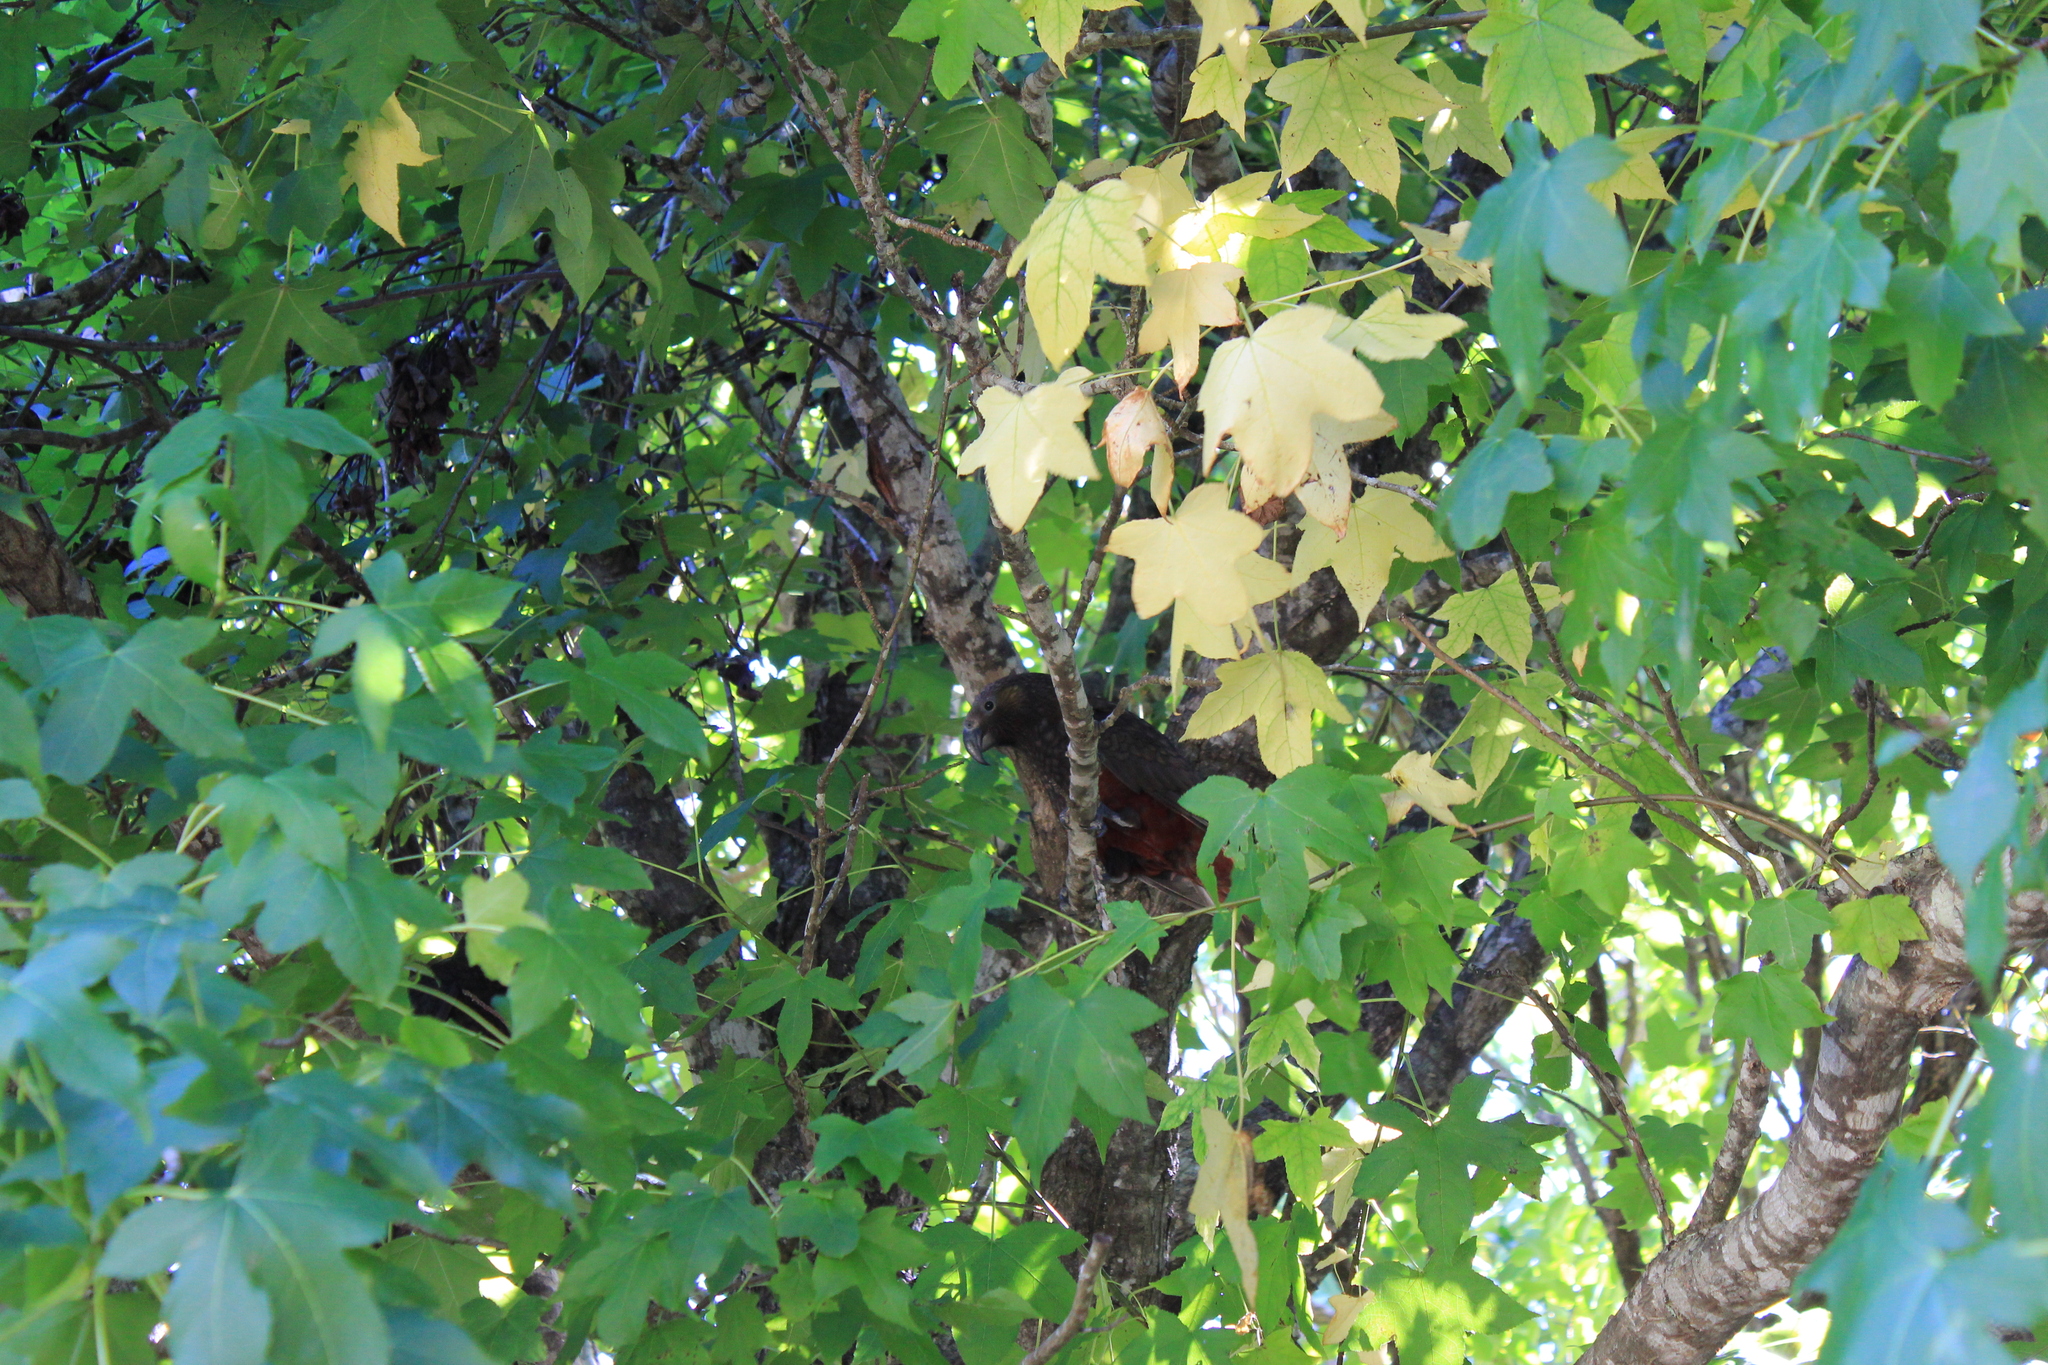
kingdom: Animalia
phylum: Chordata
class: Aves
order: Psittaciformes
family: Psittacidae
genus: Nestor
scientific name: Nestor meridionalis
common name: New zealand kaka
